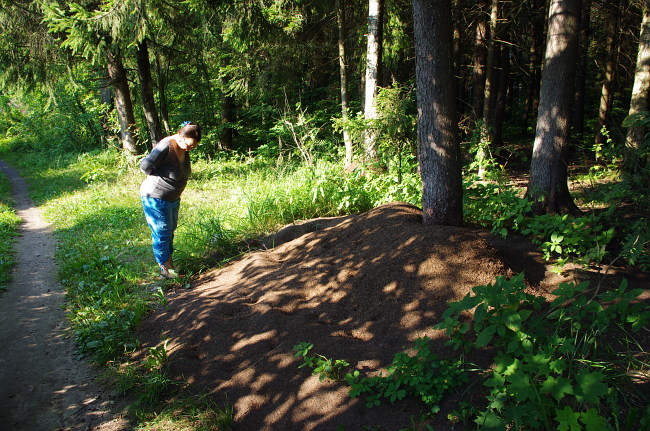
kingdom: Animalia
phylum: Arthropoda
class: Insecta
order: Hymenoptera
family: Formicidae
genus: Formica
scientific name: Formica
